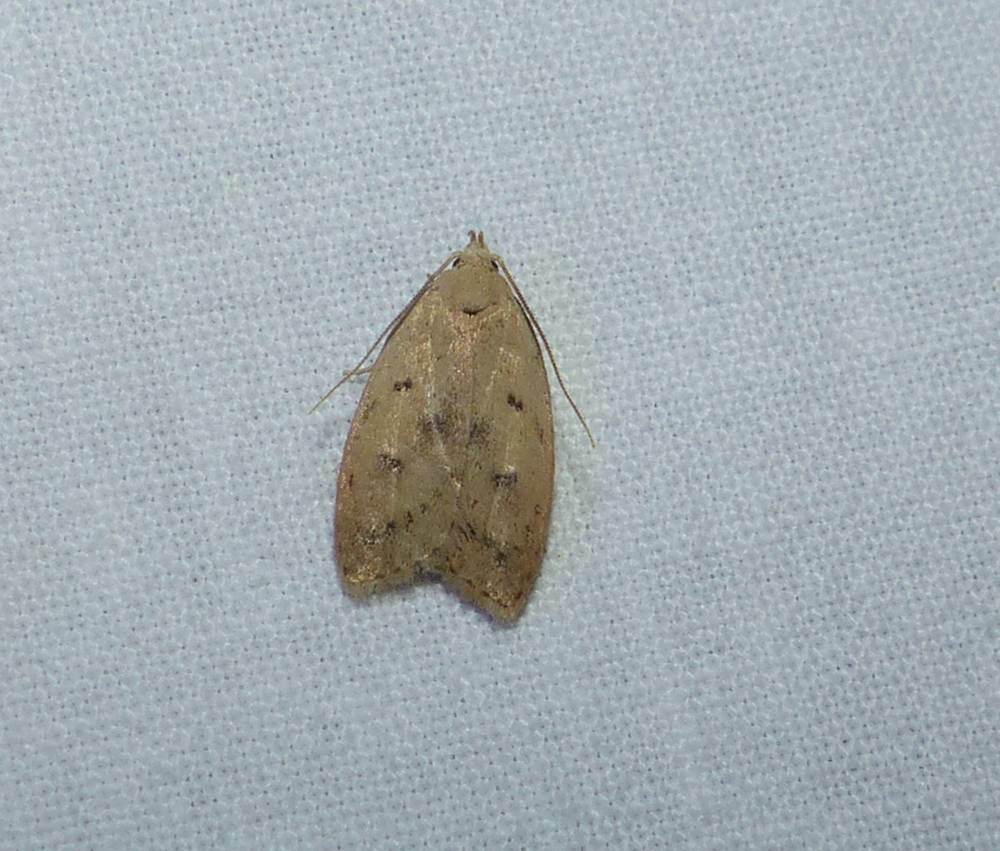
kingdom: Animalia
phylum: Arthropoda
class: Insecta
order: Lepidoptera
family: Peleopodidae
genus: Machimia
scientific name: Machimia tentoriferella
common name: Gold-striped leaftier moth
